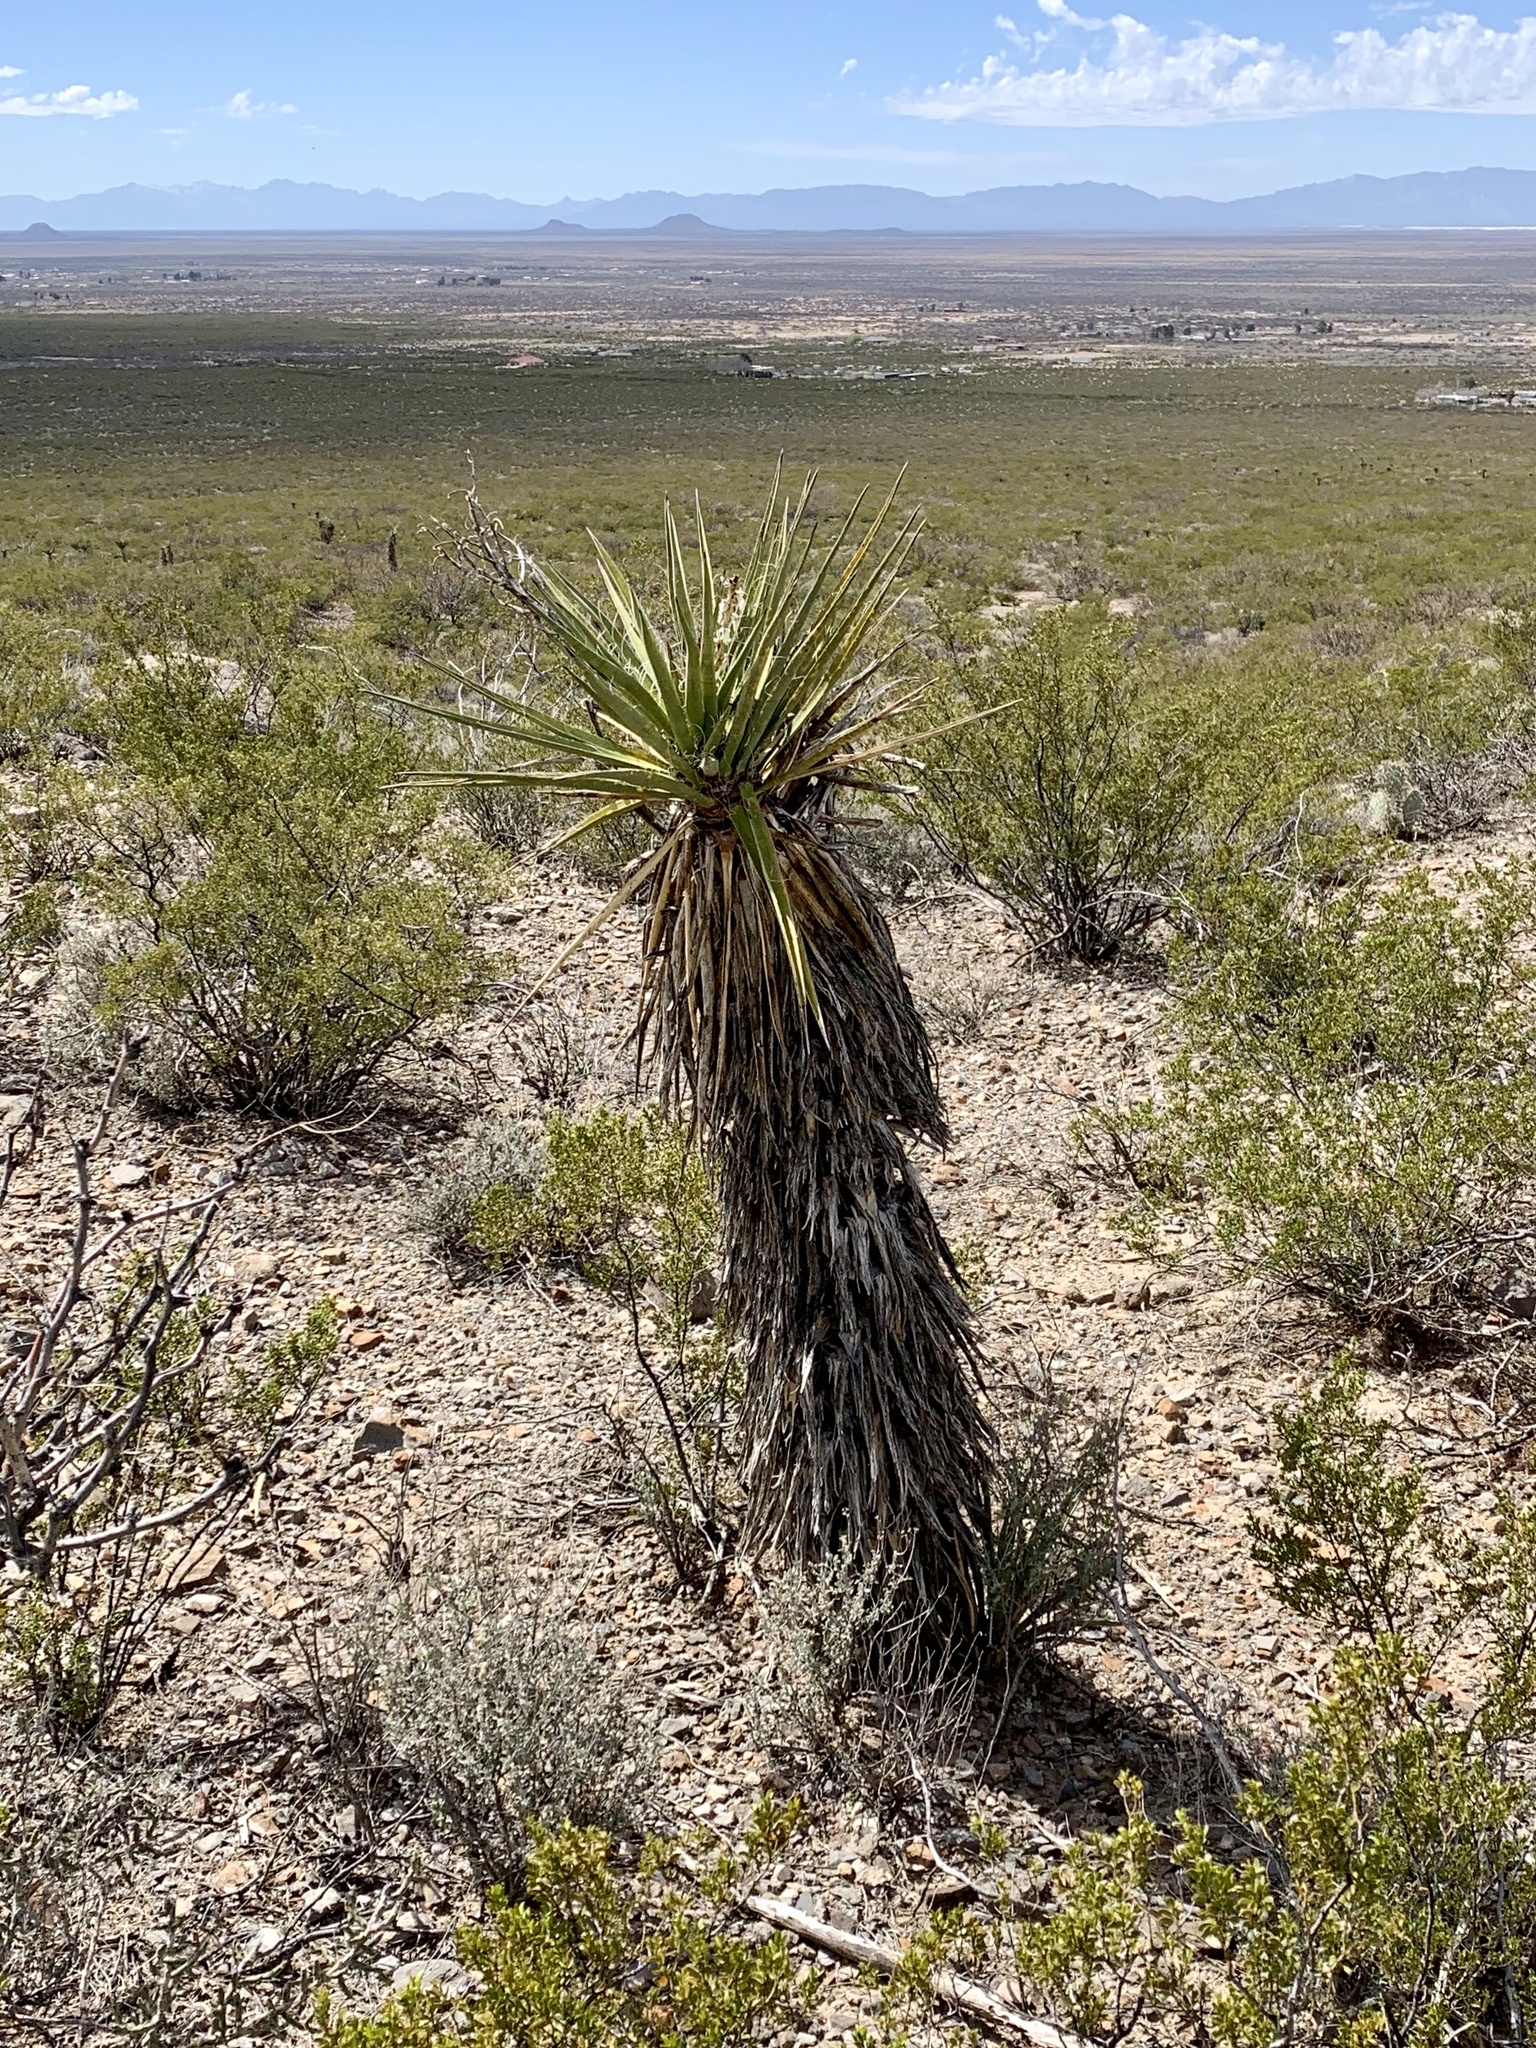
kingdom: Plantae
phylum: Tracheophyta
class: Liliopsida
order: Asparagales
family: Asparagaceae
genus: Yucca
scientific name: Yucca treculiana
